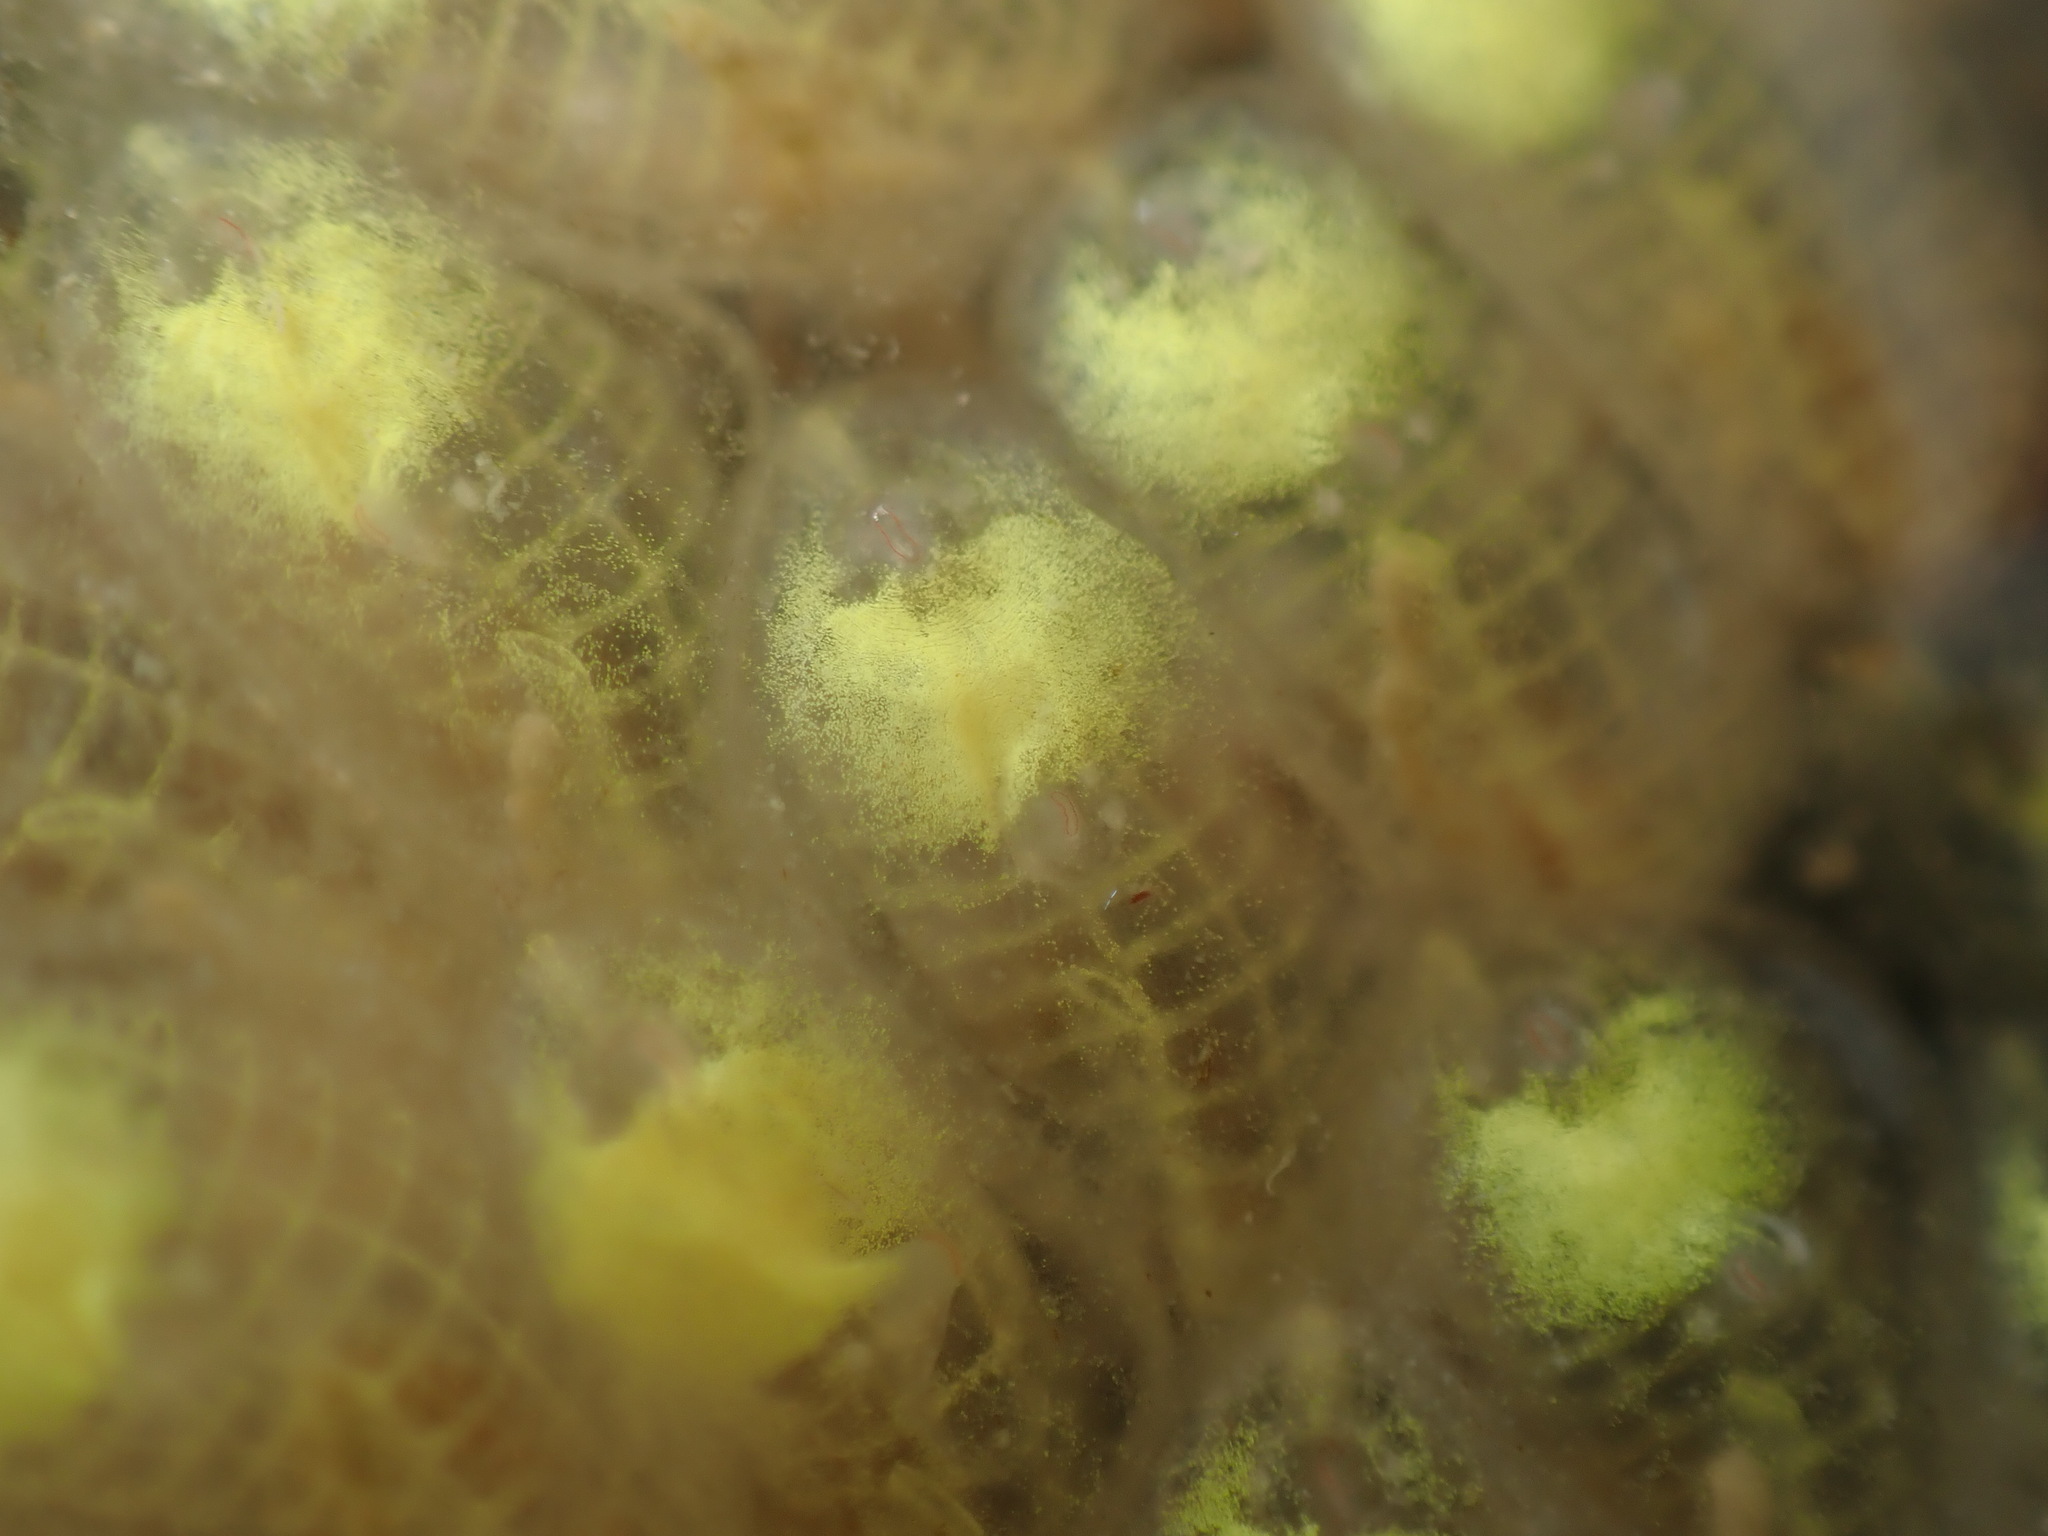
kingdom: Animalia
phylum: Chordata
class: Ascidiacea
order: Stolidobranchia
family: Styelidae
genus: Symplegma
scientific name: Symplegma brakenhielmi
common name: Ascidian
